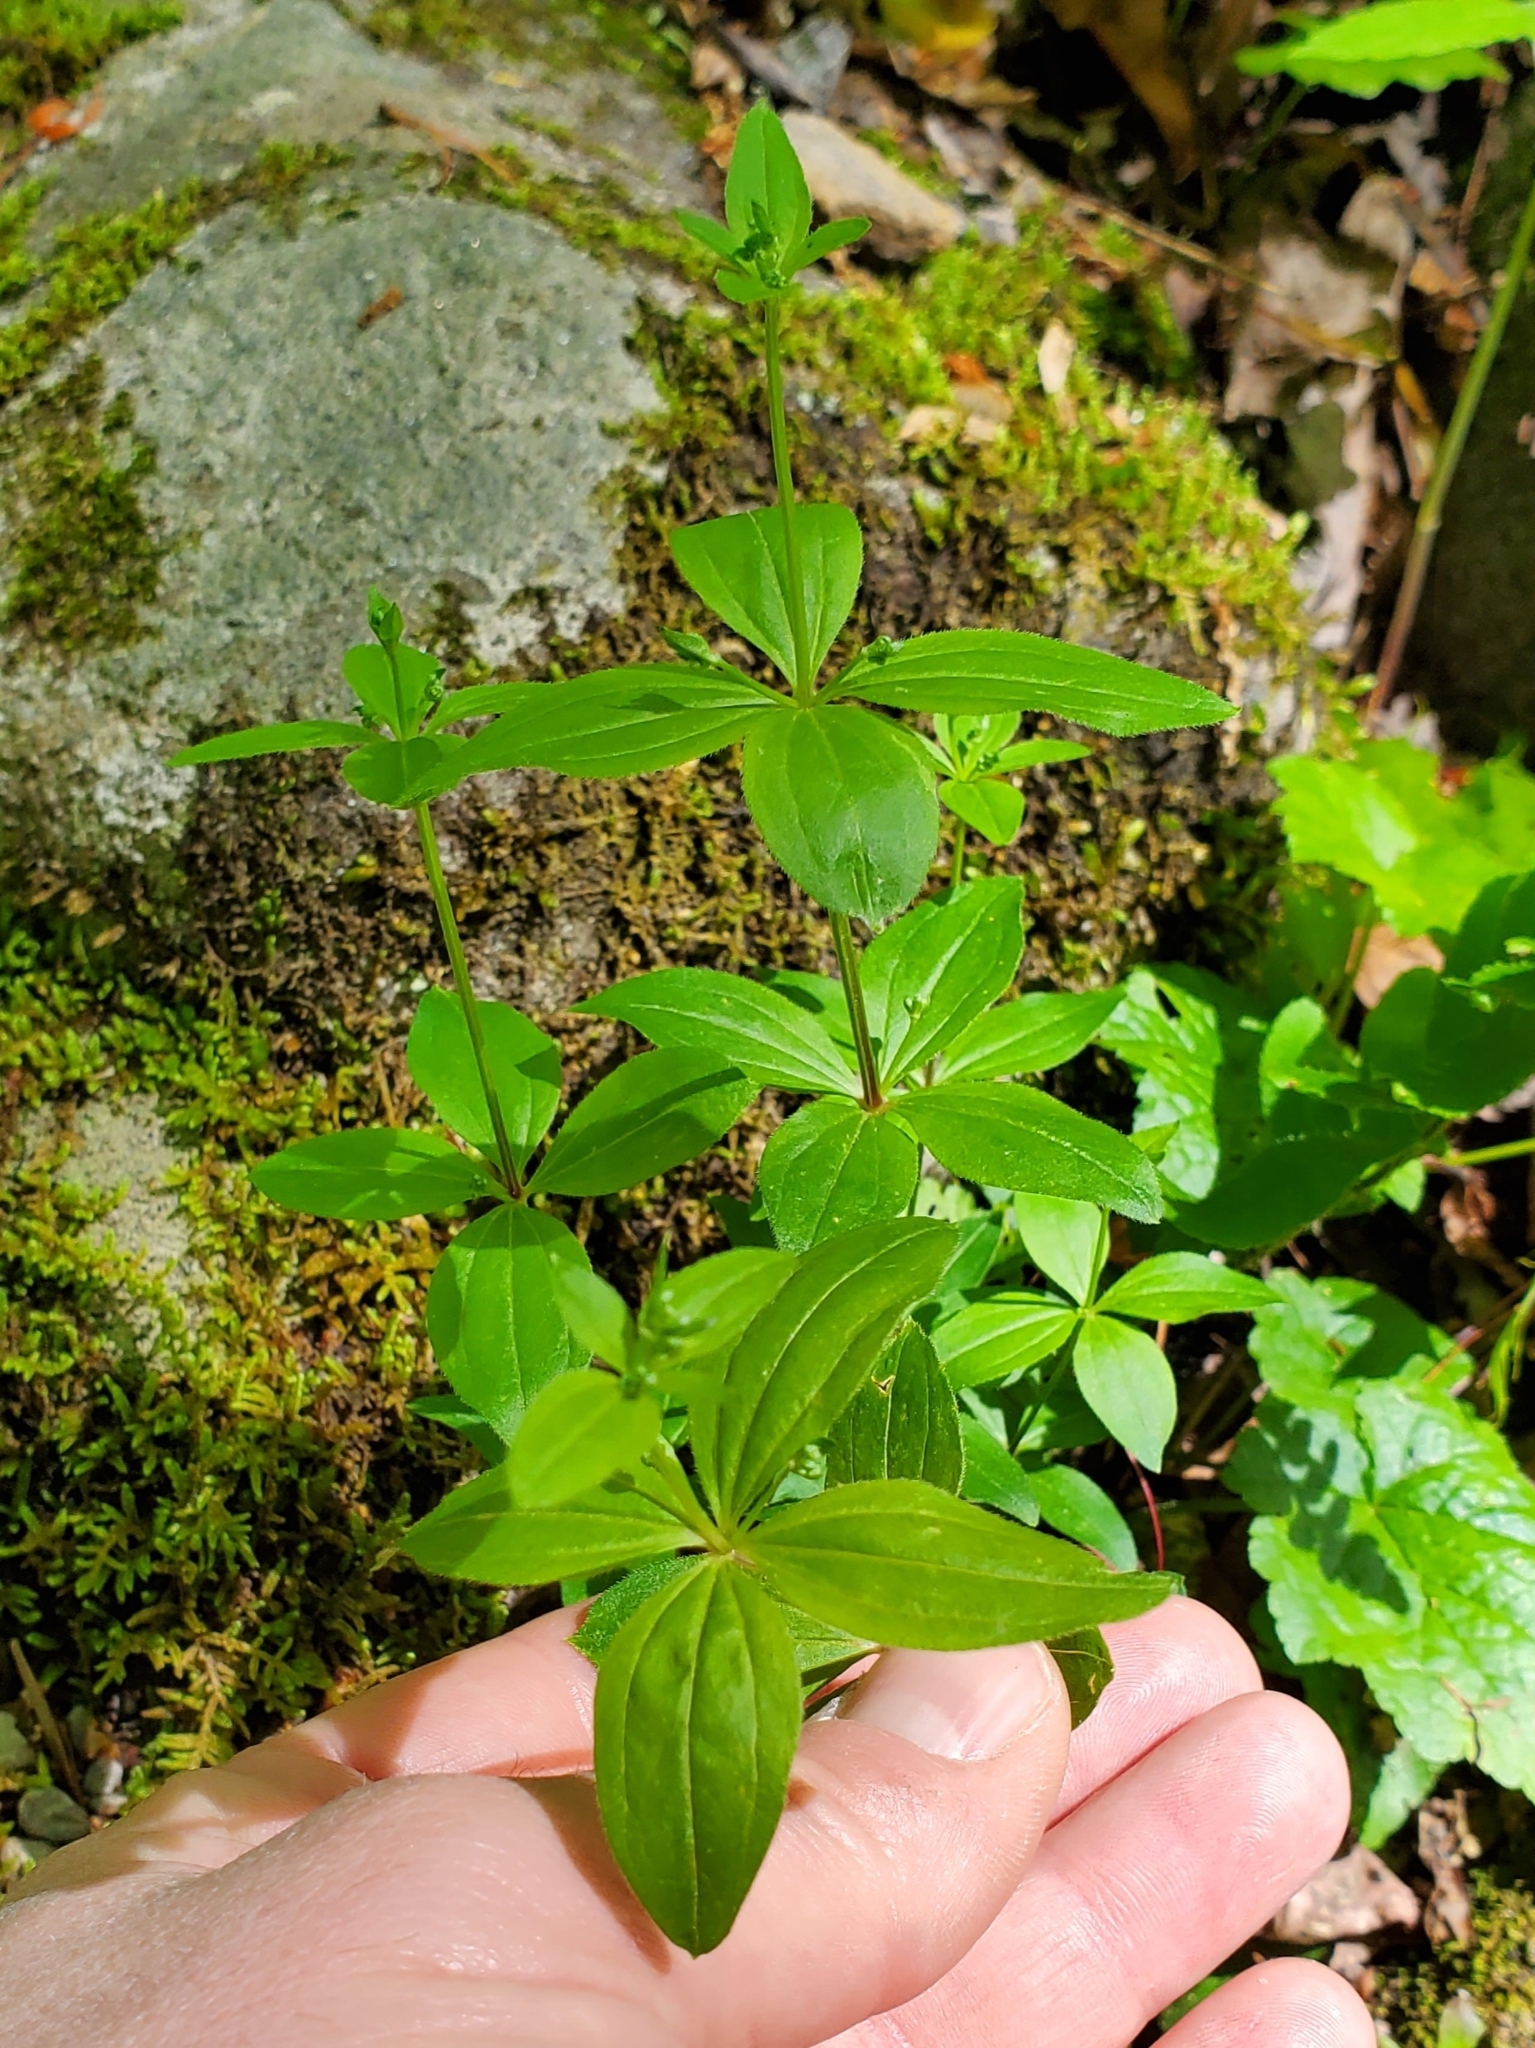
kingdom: Plantae
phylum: Tracheophyta
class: Magnoliopsida
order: Gentianales
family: Rubiaceae
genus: Galium
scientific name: Galium circaezans
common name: Forest bedstraw
